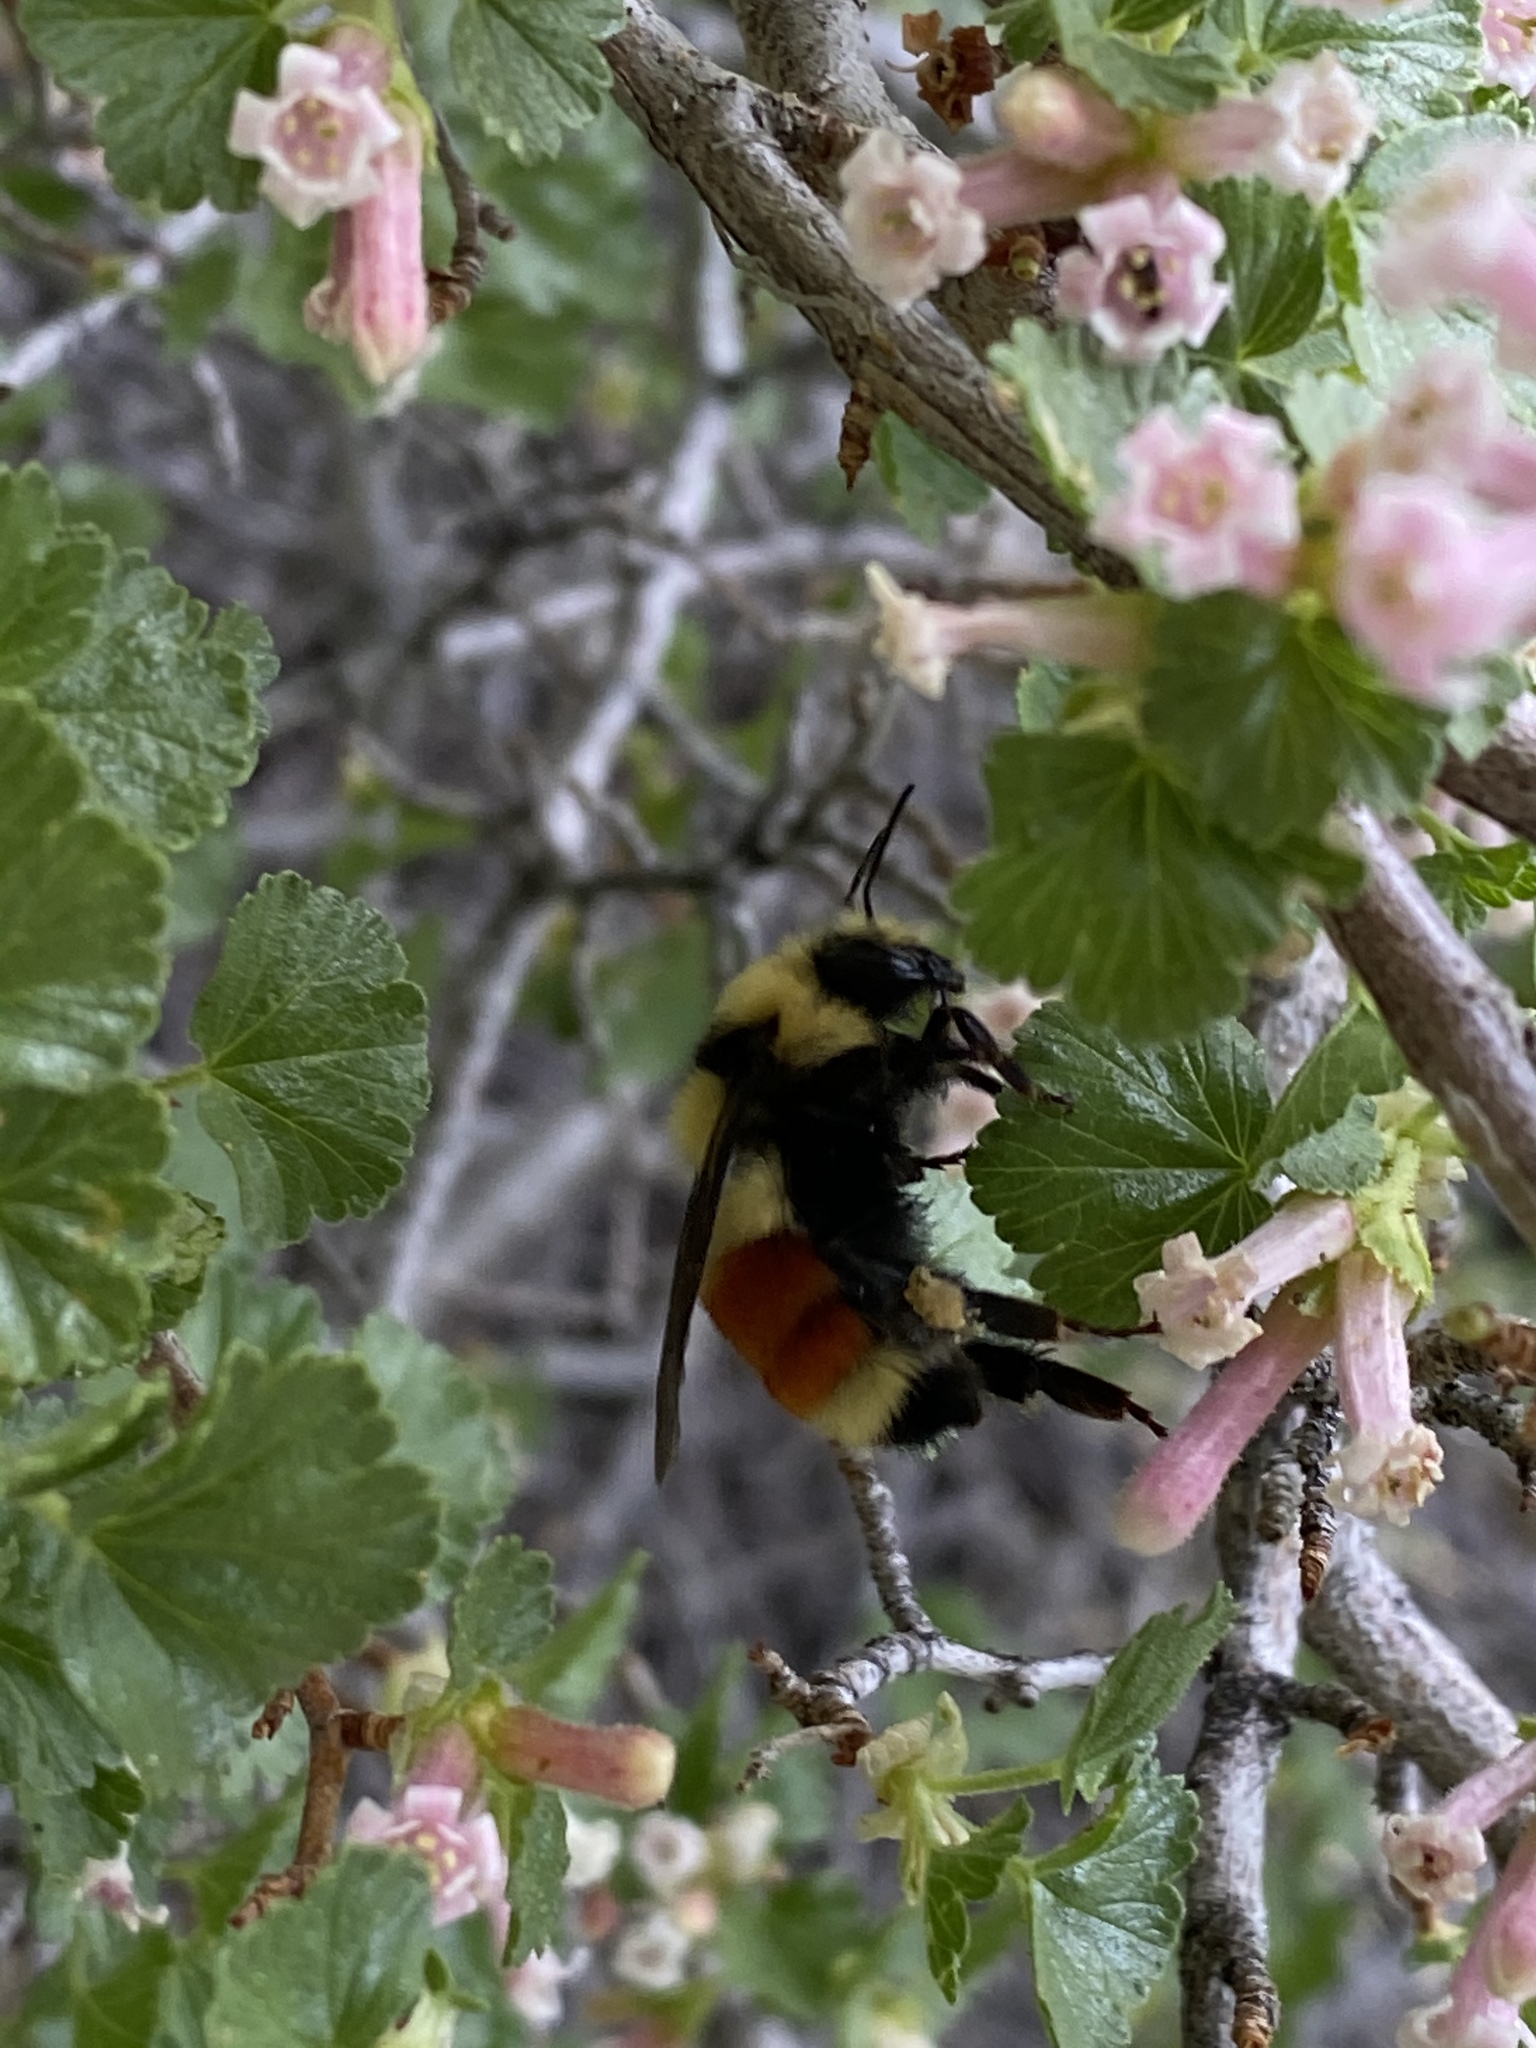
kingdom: Animalia
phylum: Arthropoda
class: Insecta
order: Hymenoptera
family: Apidae
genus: Bombus
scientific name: Bombus huntii
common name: Hunt bumble bee
